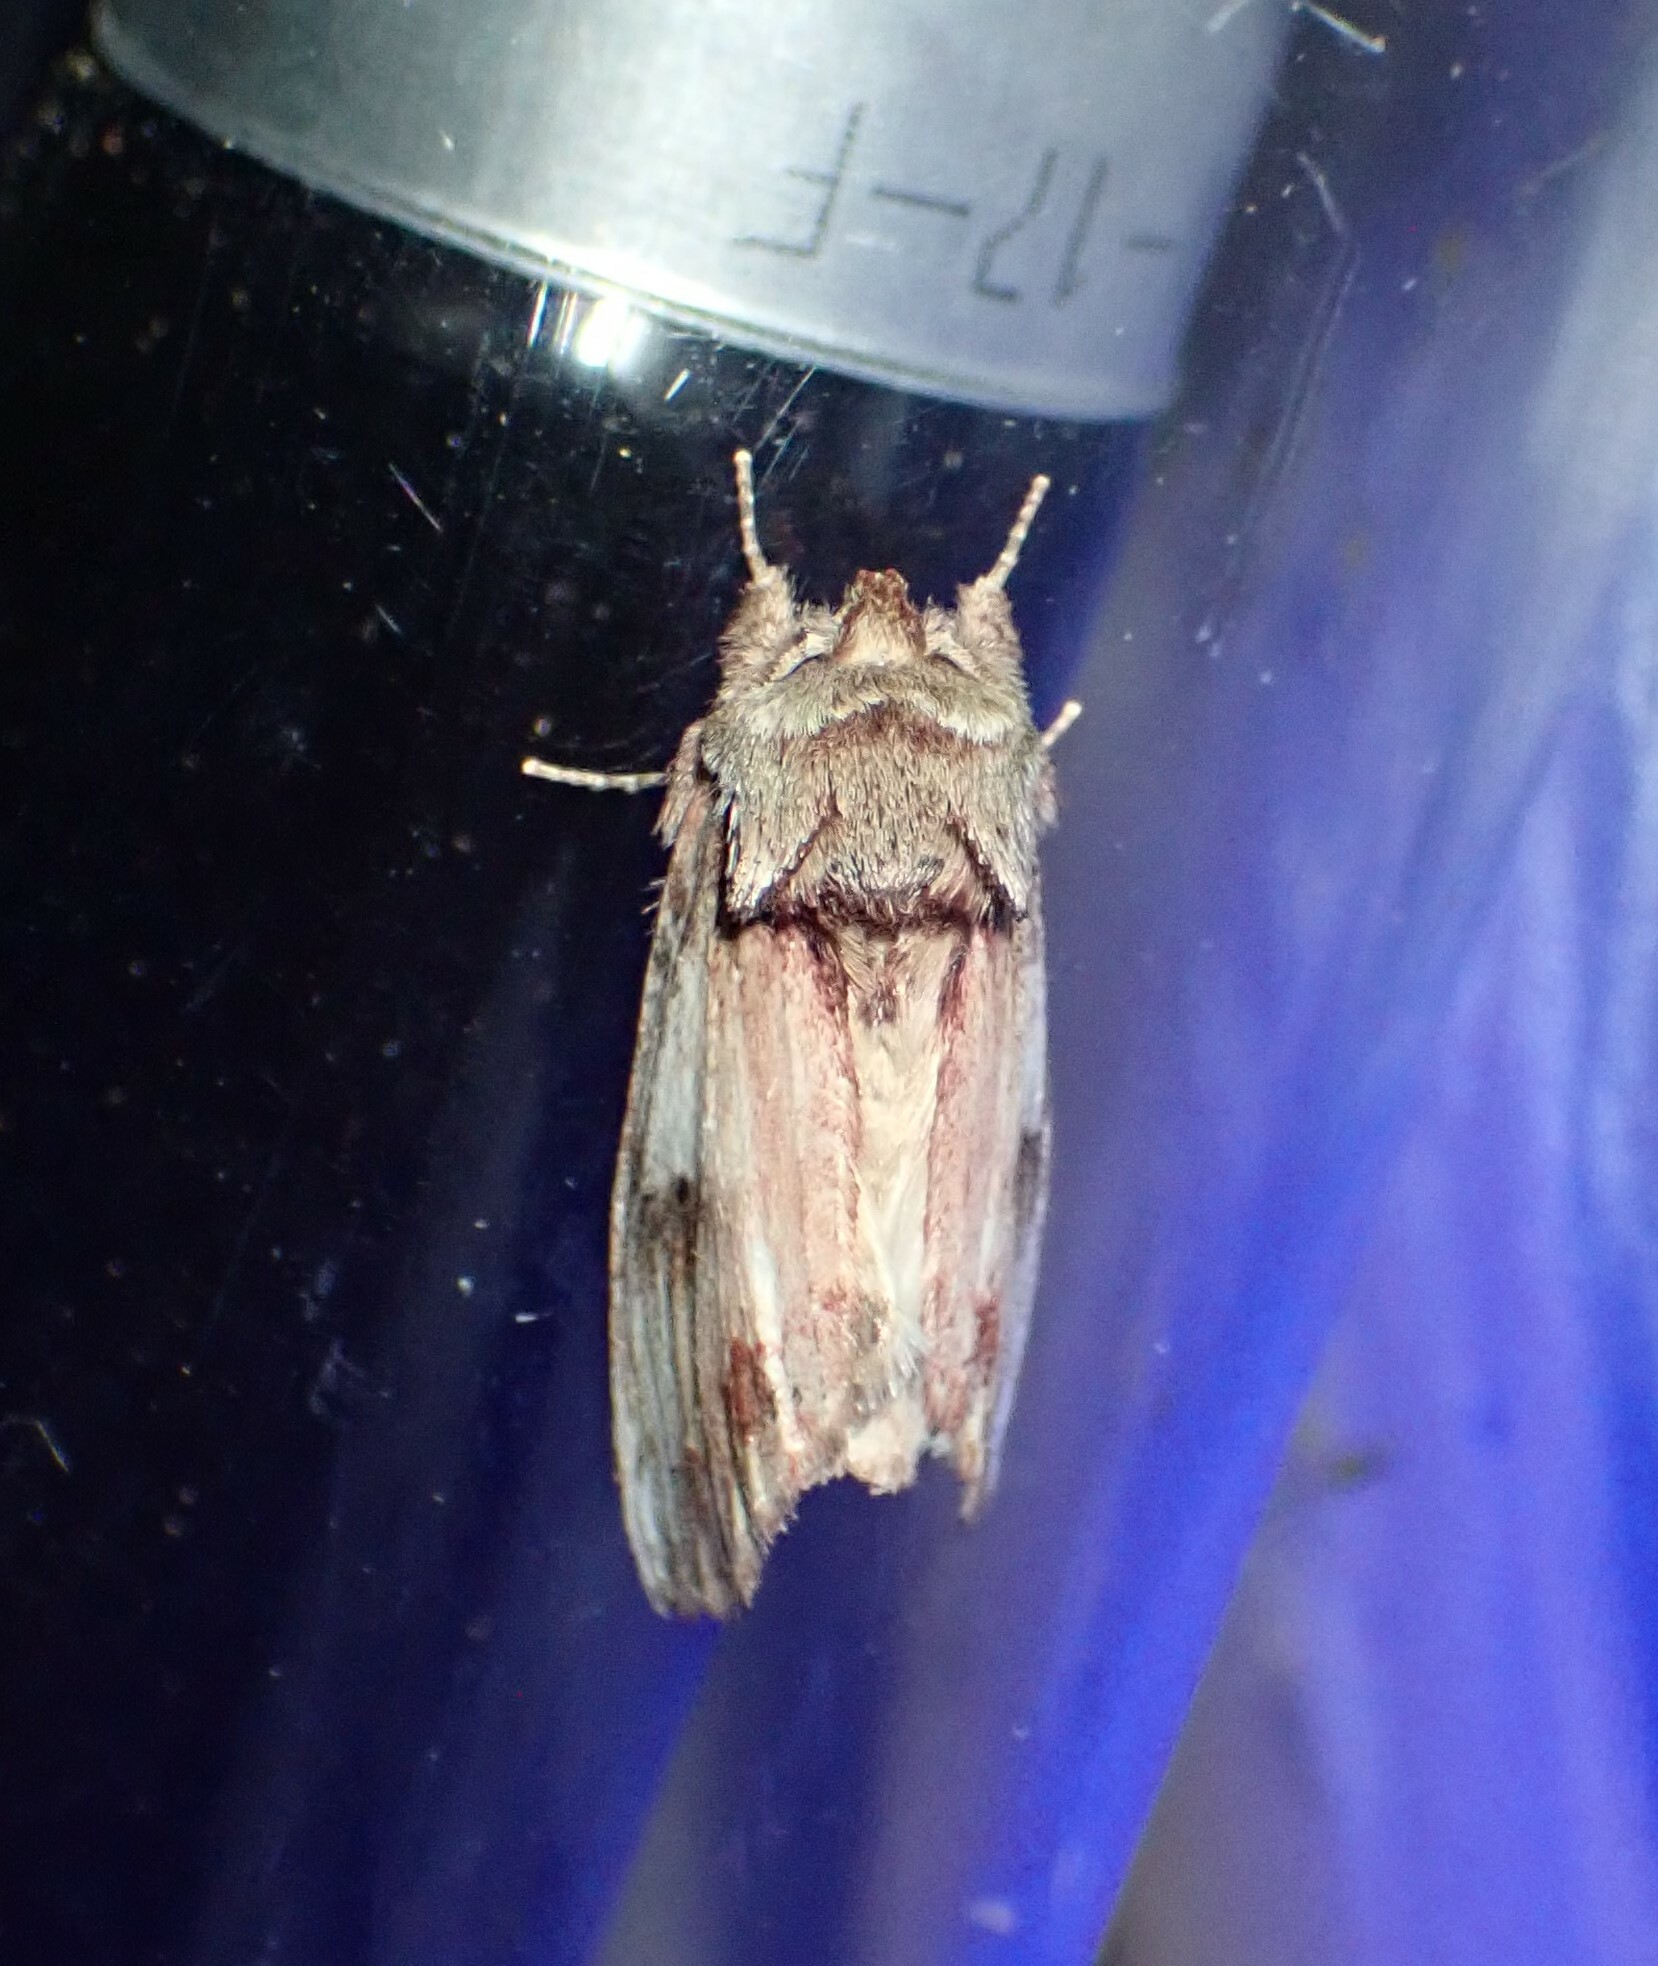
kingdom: Animalia
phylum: Arthropoda
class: Insecta
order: Lepidoptera
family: Notodontidae
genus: Schizura
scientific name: Schizura
